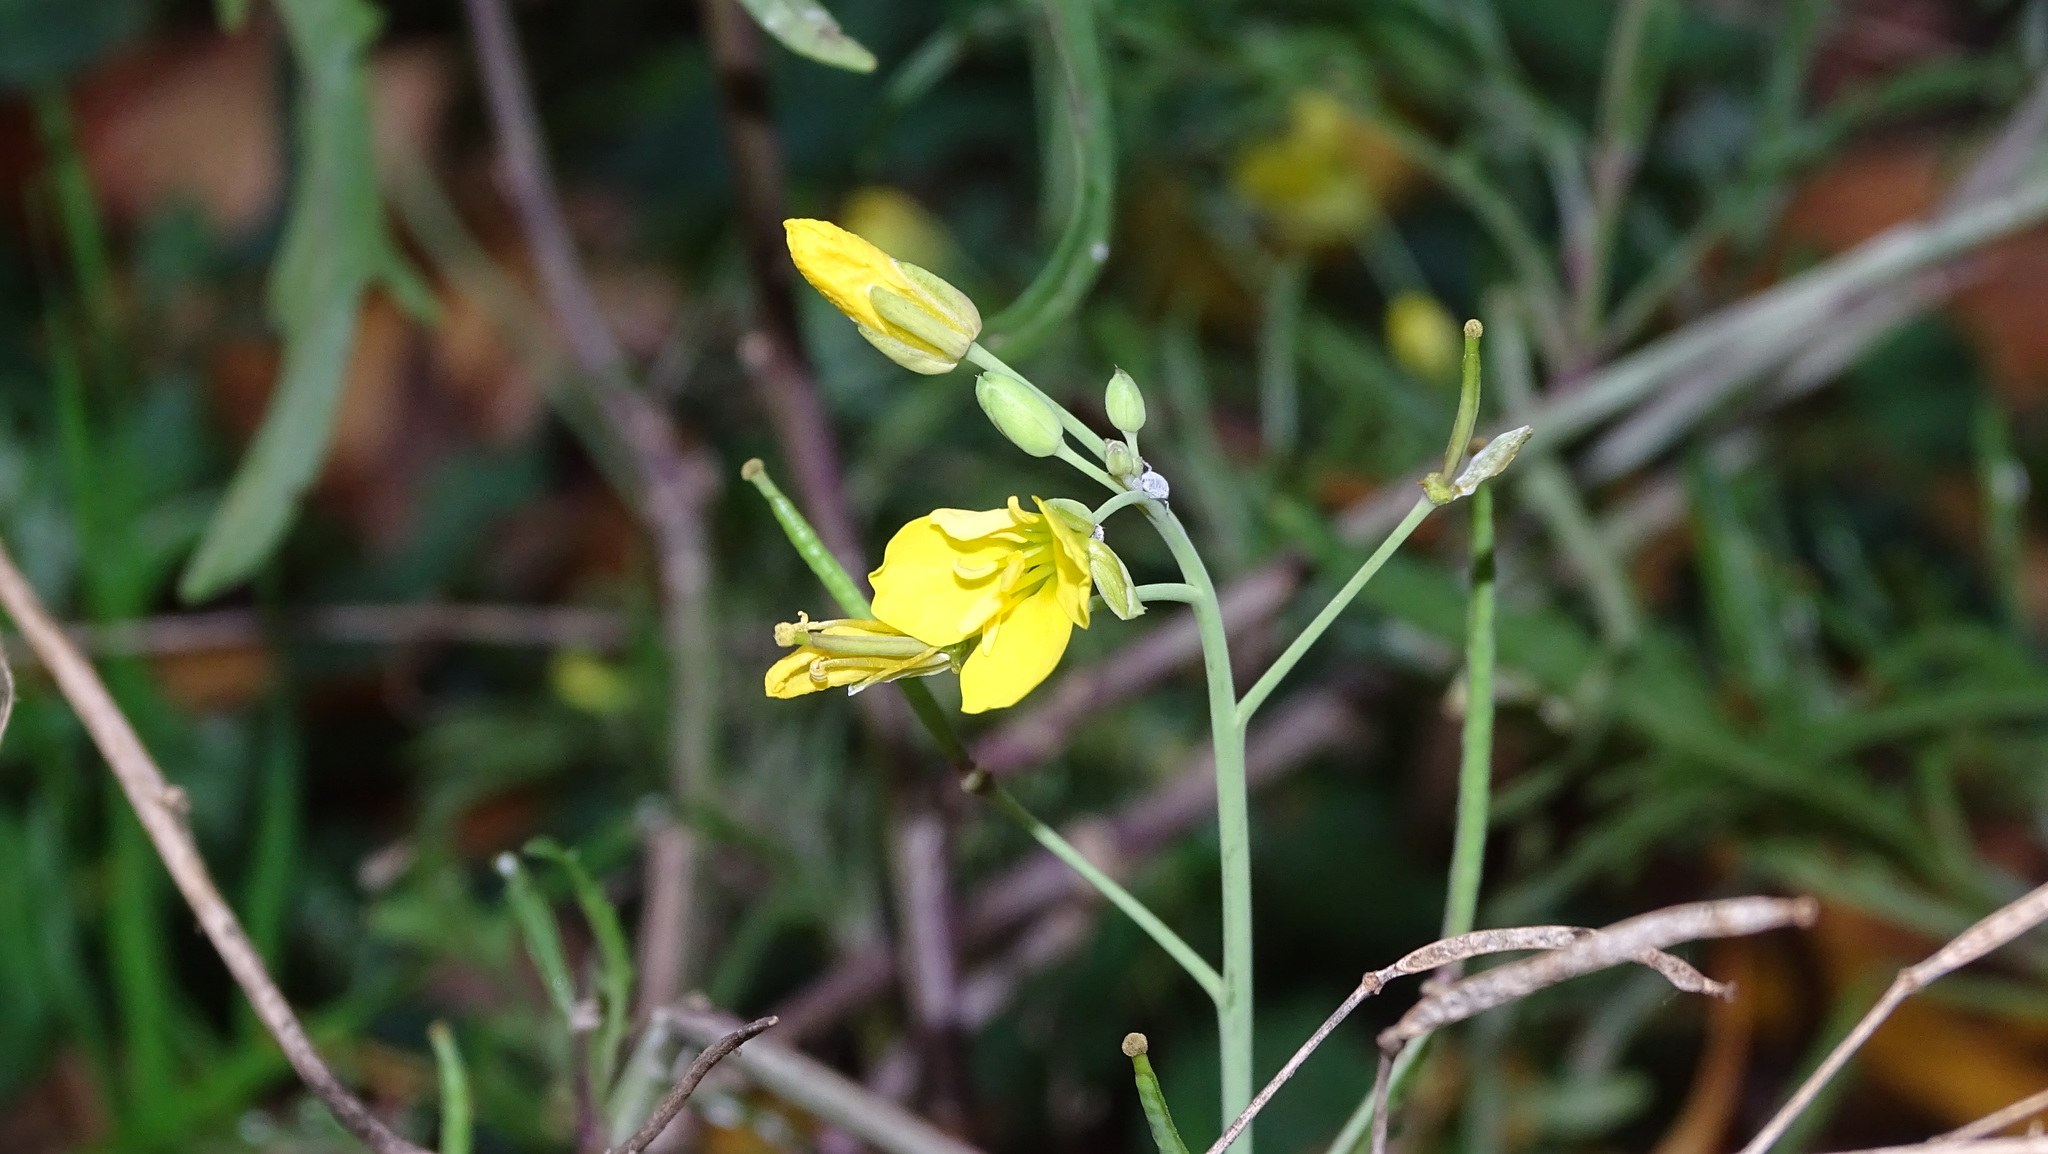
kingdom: Plantae
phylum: Tracheophyta
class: Magnoliopsida
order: Brassicales
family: Brassicaceae
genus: Diplotaxis
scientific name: Diplotaxis tenuifolia
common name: Perennial wall-rocket
